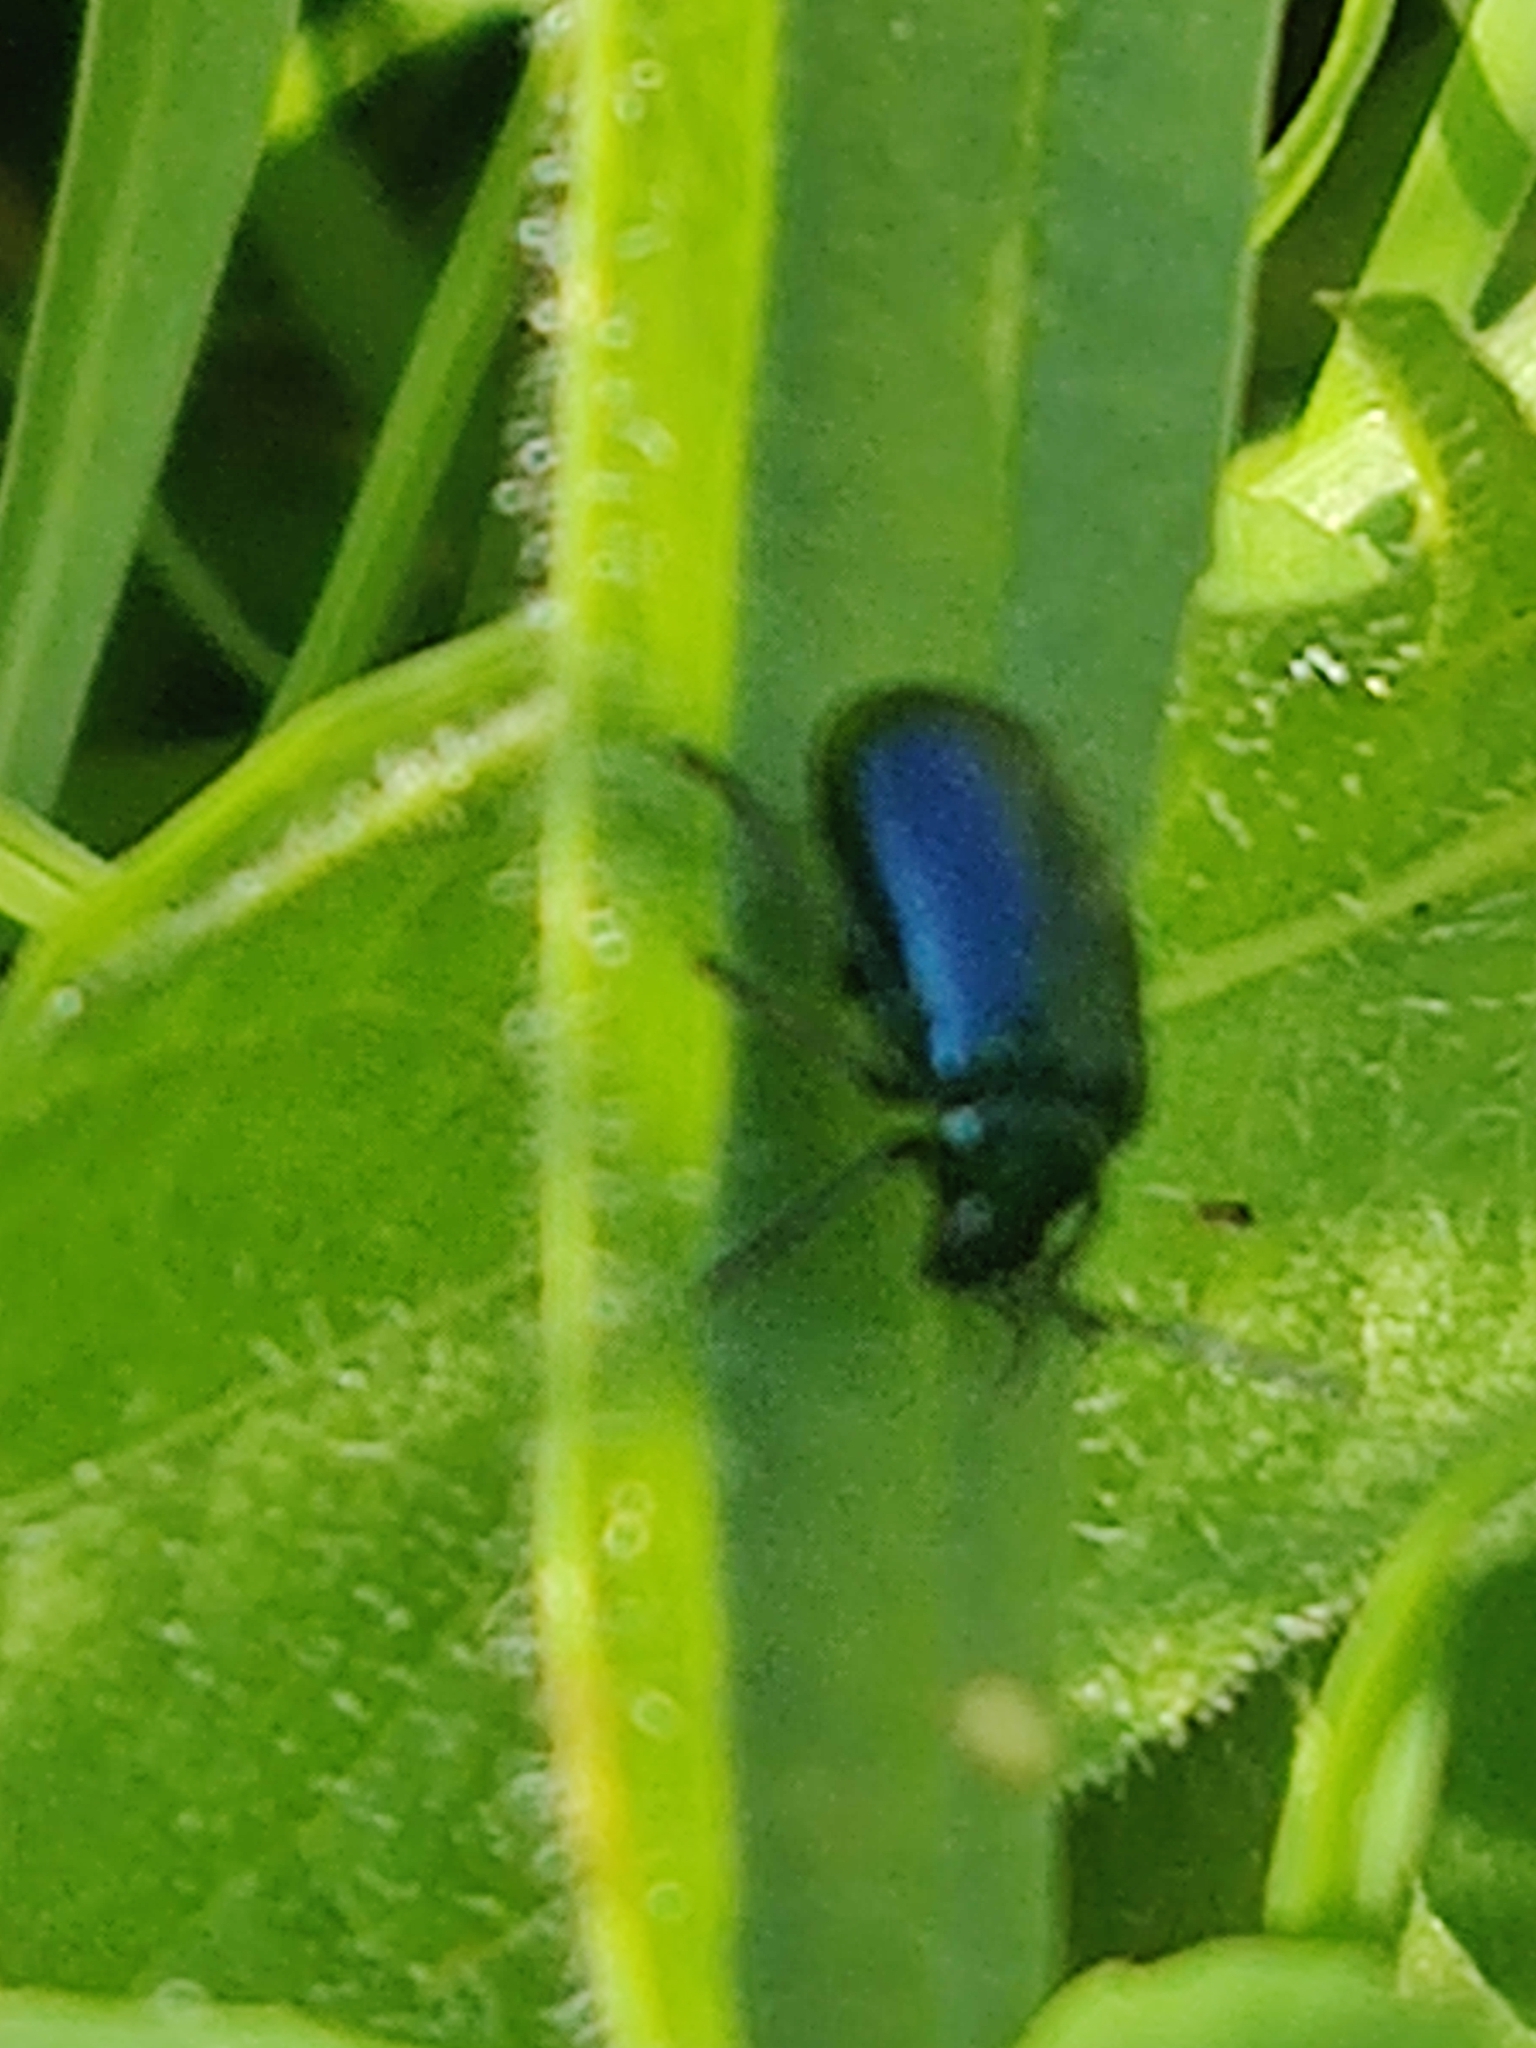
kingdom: Animalia
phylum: Arthropoda
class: Insecta
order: Coleoptera
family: Chrysomelidae
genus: Agelastica
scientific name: Agelastica alni
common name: Alder leaf beetle
